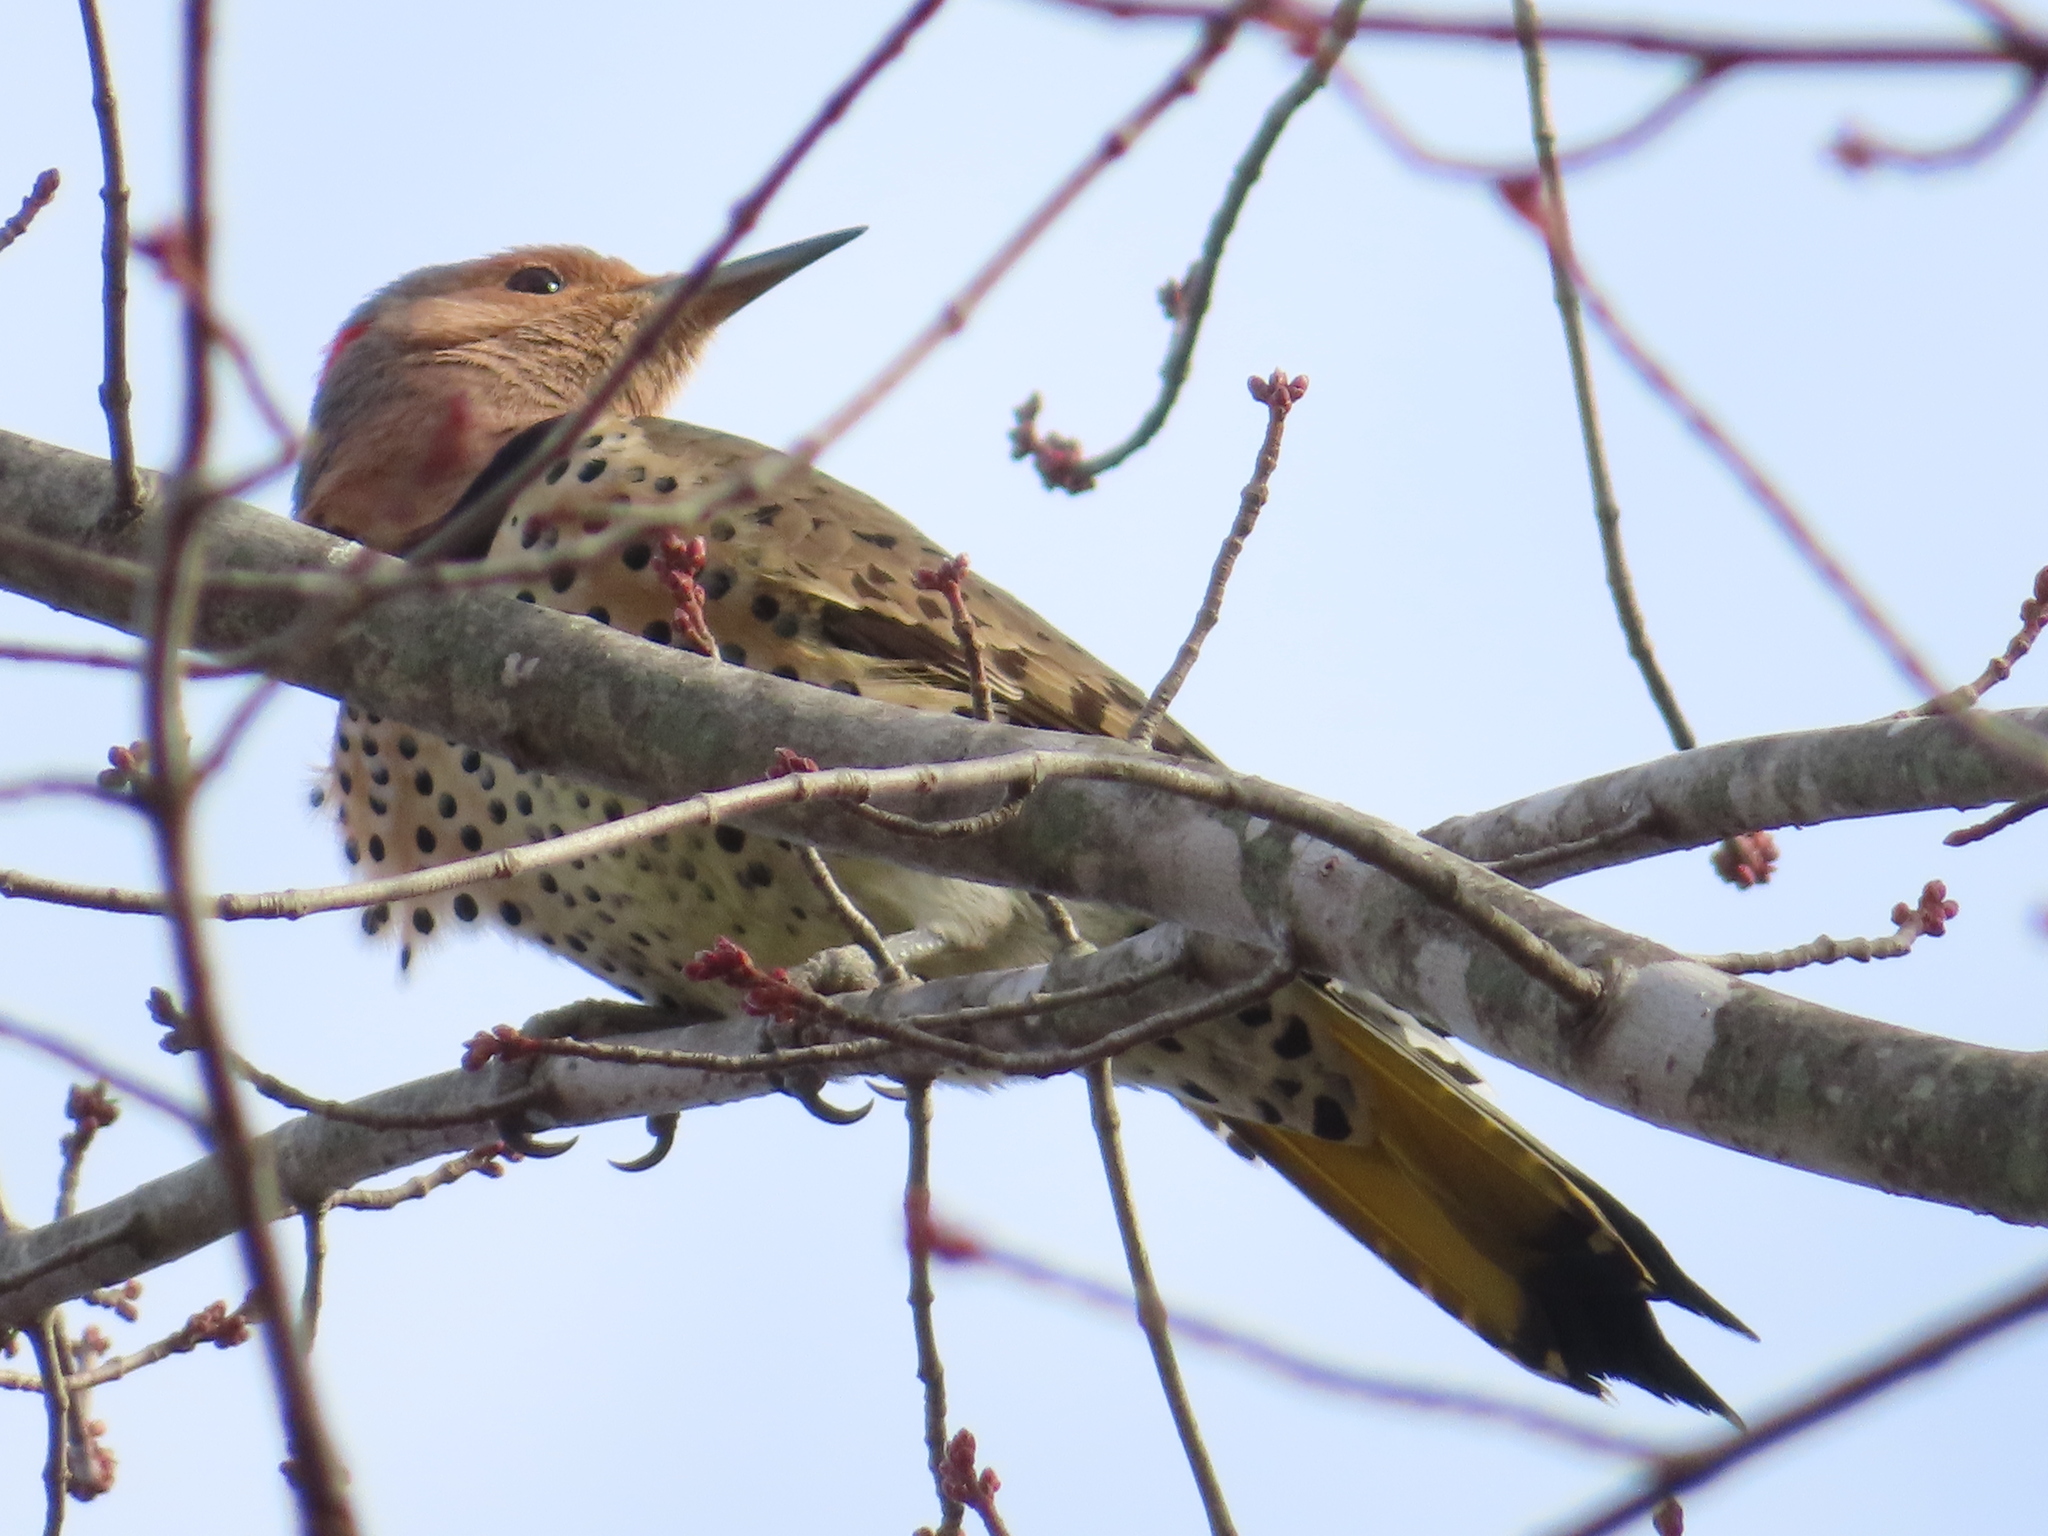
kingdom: Animalia
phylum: Chordata
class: Aves
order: Piciformes
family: Picidae
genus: Colaptes
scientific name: Colaptes auratus
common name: Northern flicker
